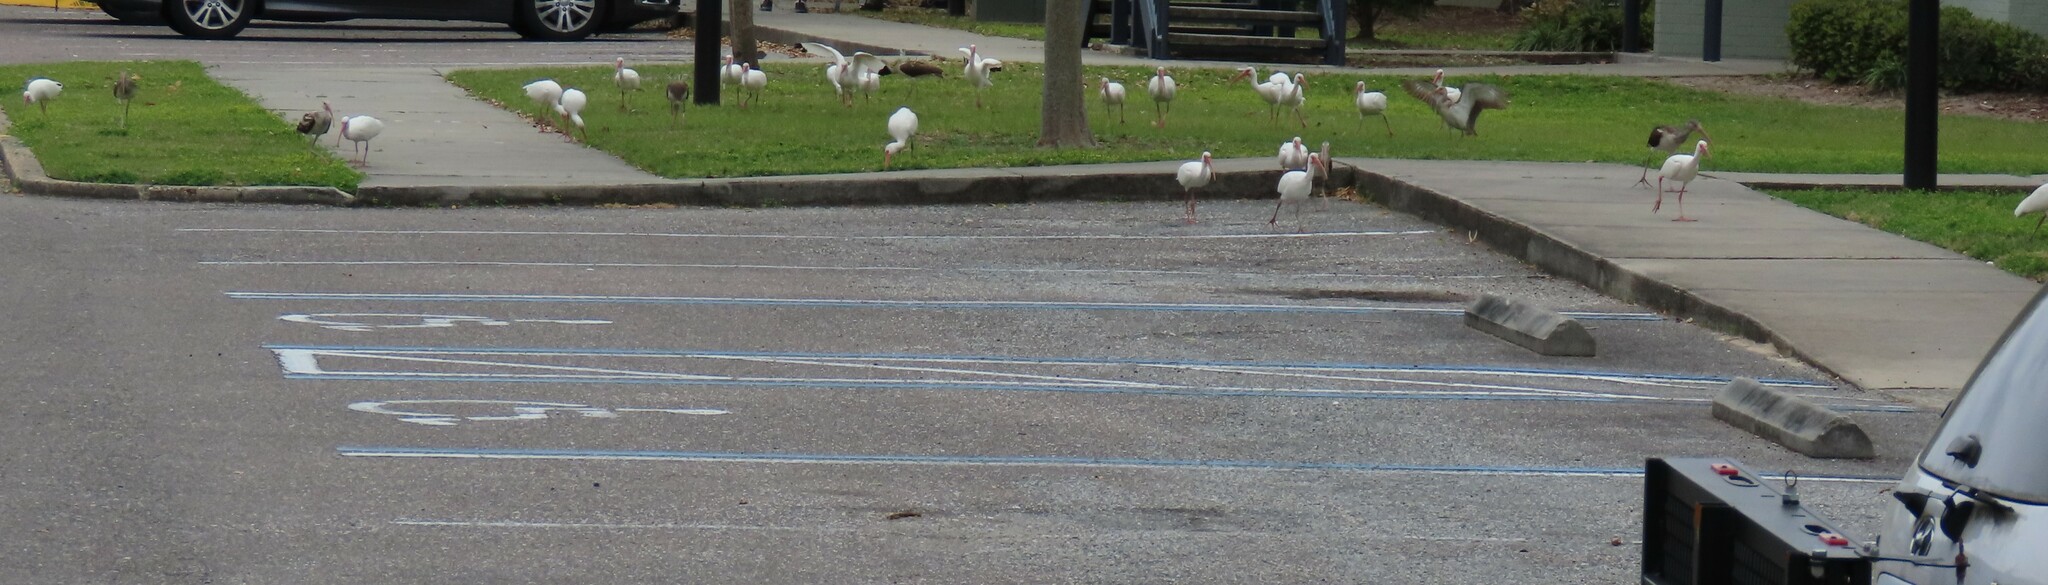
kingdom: Animalia
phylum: Chordata
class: Aves
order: Pelecaniformes
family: Threskiornithidae
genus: Eudocimus
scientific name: Eudocimus albus
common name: White ibis
